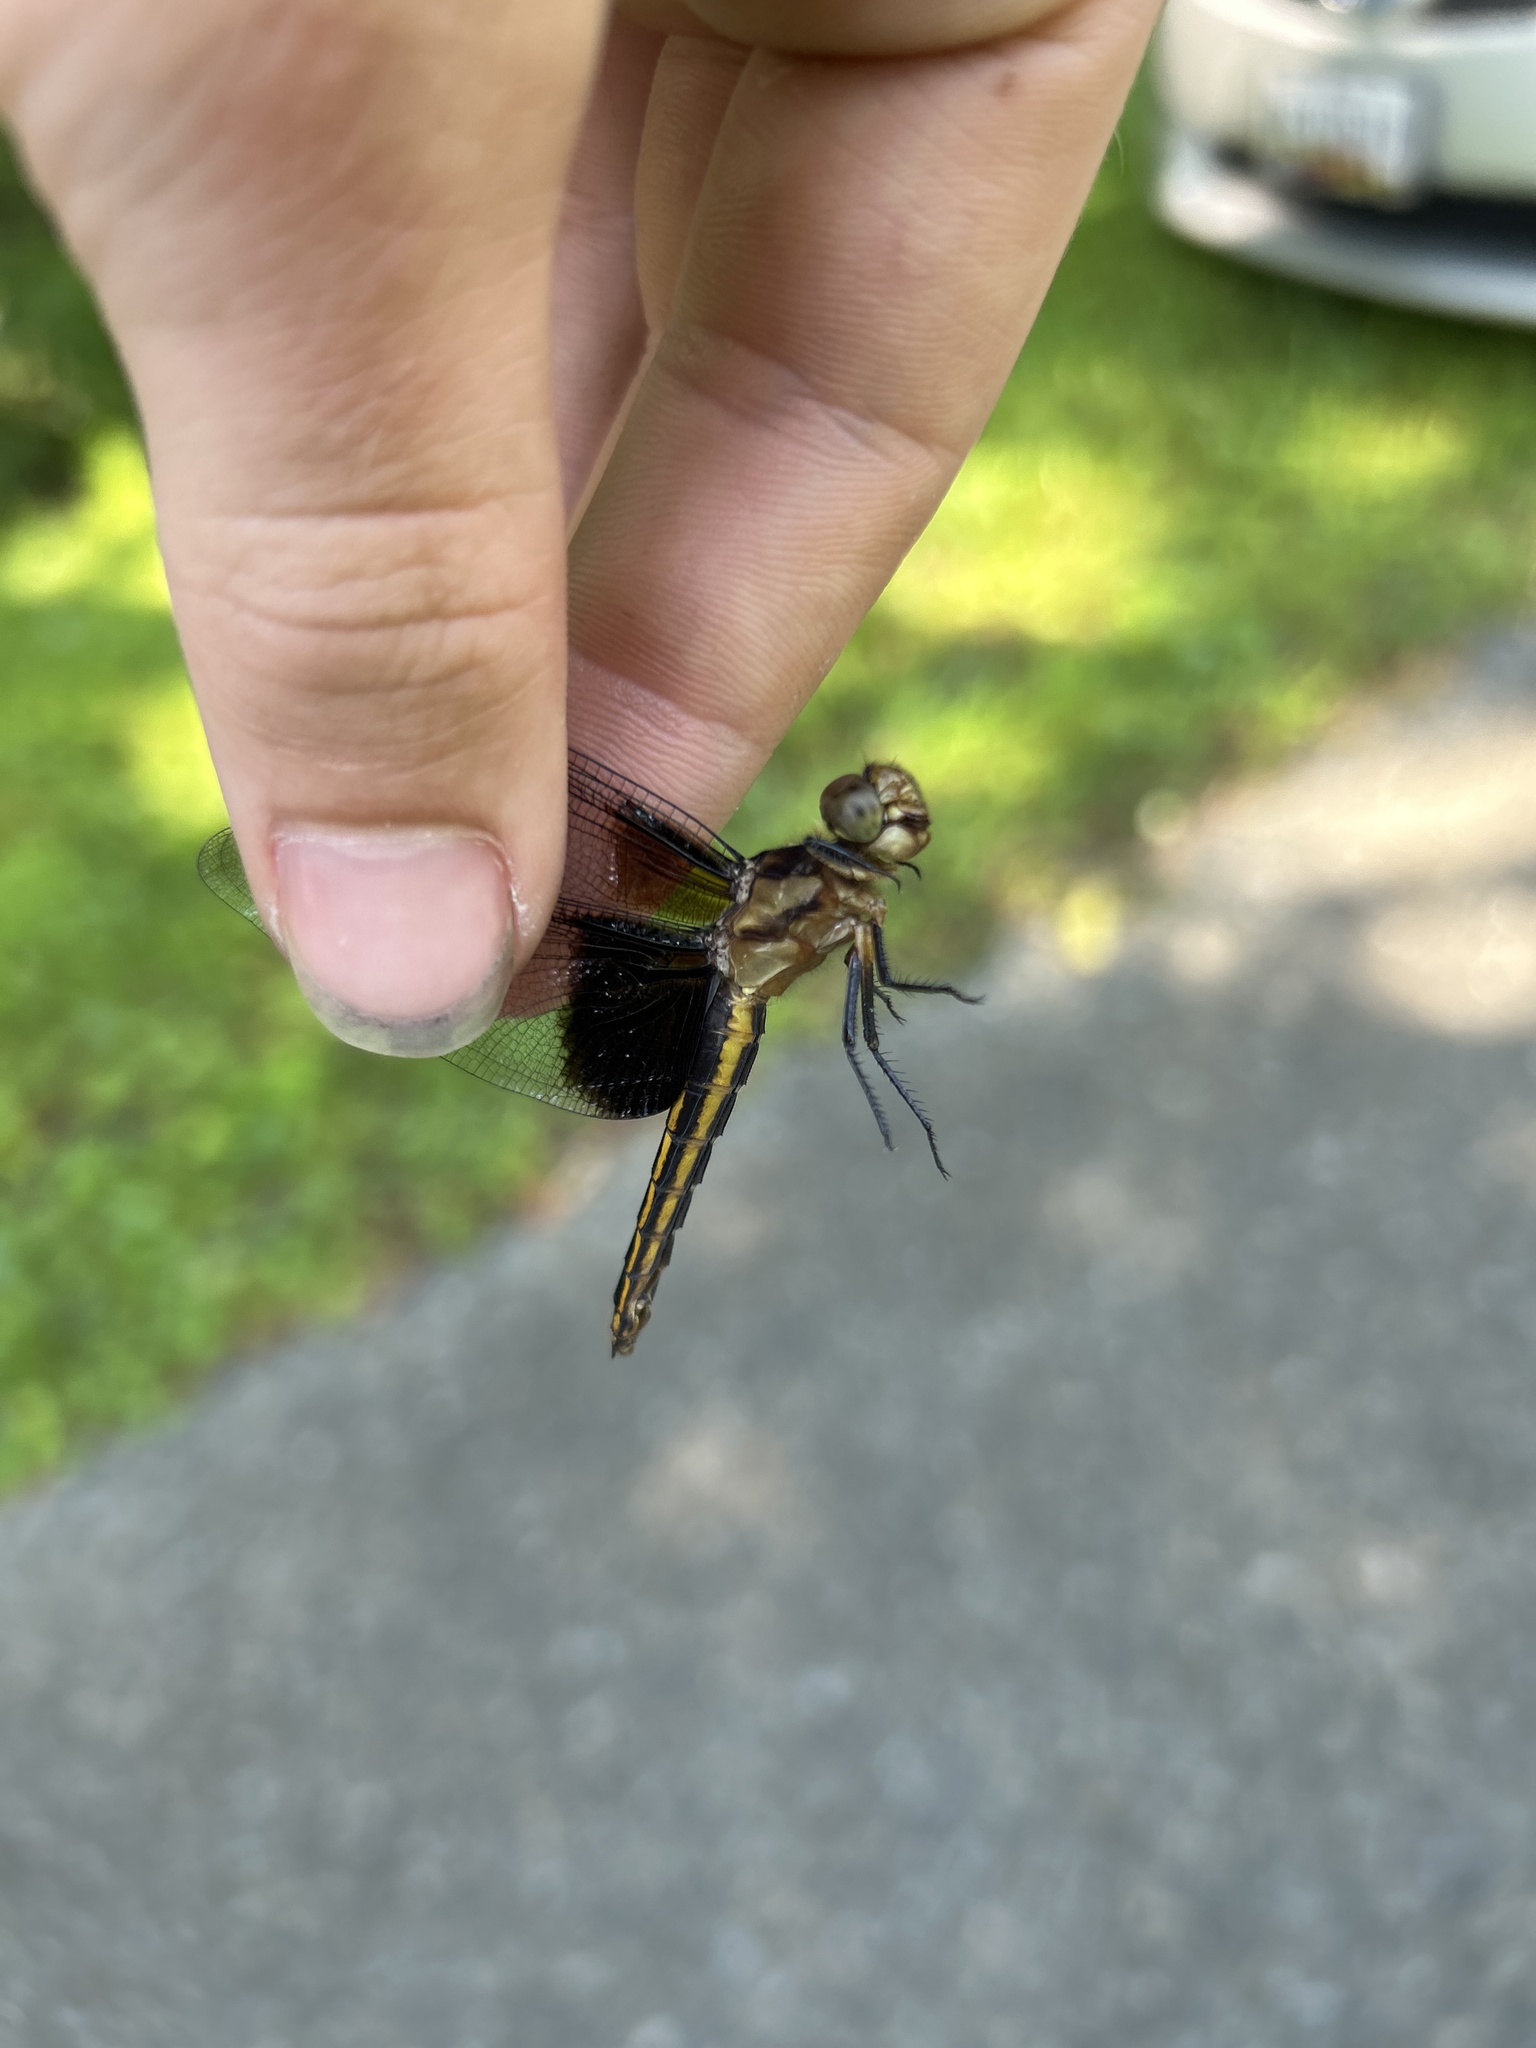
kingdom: Animalia
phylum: Arthropoda
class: Insecta
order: Odonata
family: Libellulidae
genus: Libellula
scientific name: Libellula luctuosa
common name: Widow skimmer
